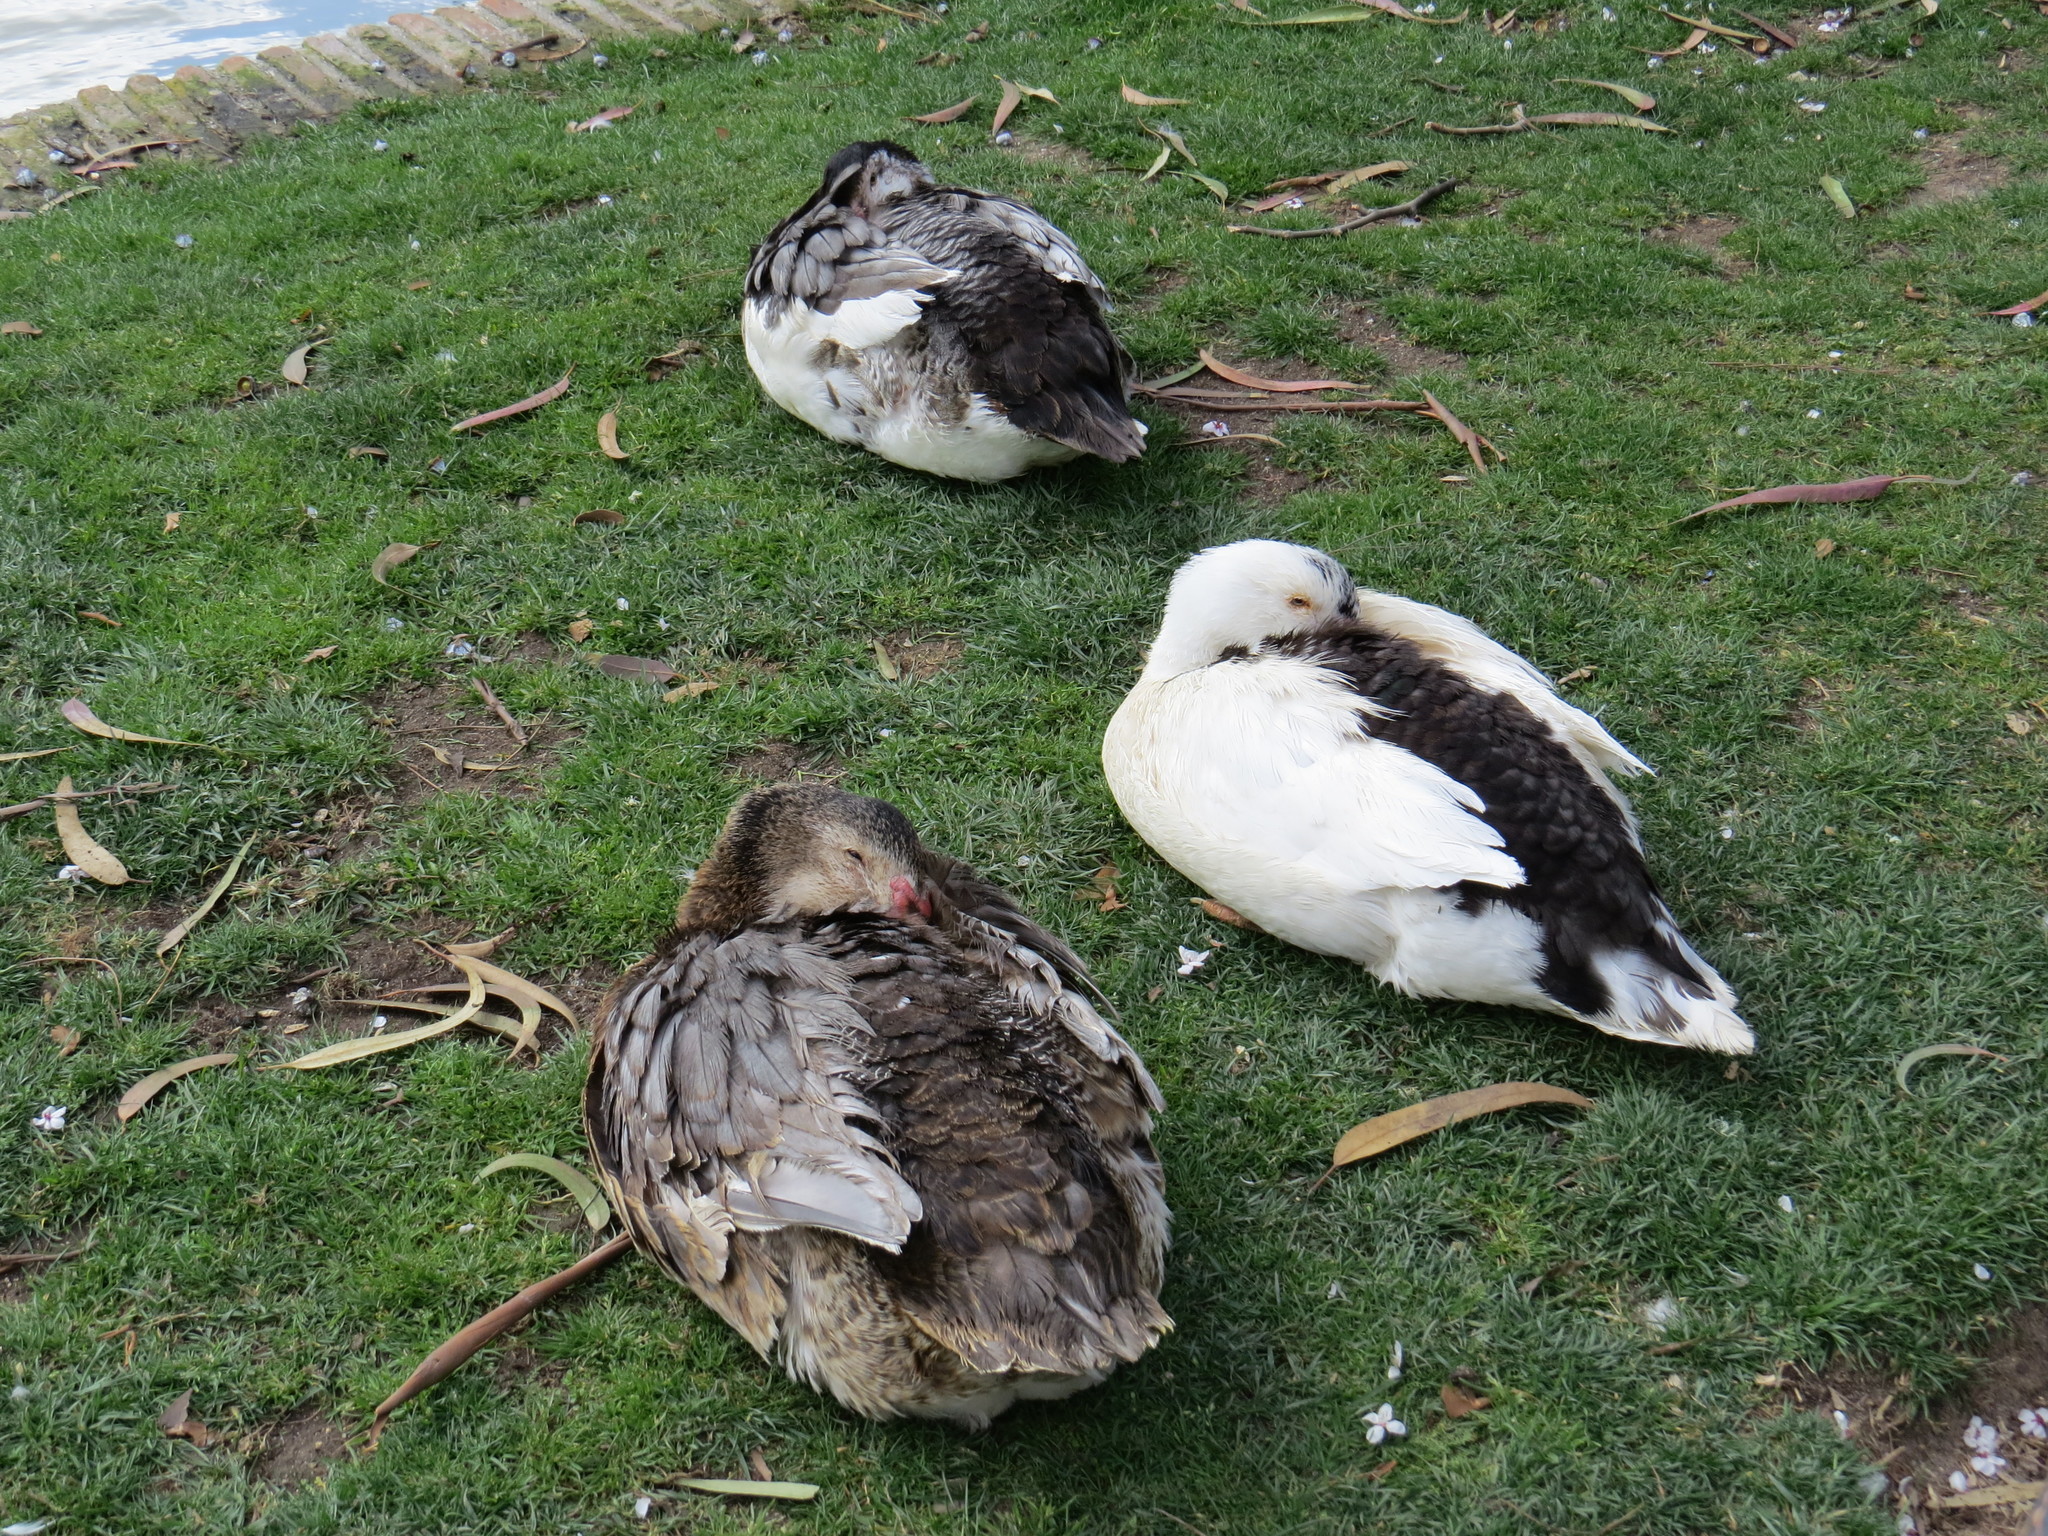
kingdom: Animalia
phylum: Chordata
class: Aves
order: Anseriformes
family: Anatidae
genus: Cairina
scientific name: Cairina moschata
